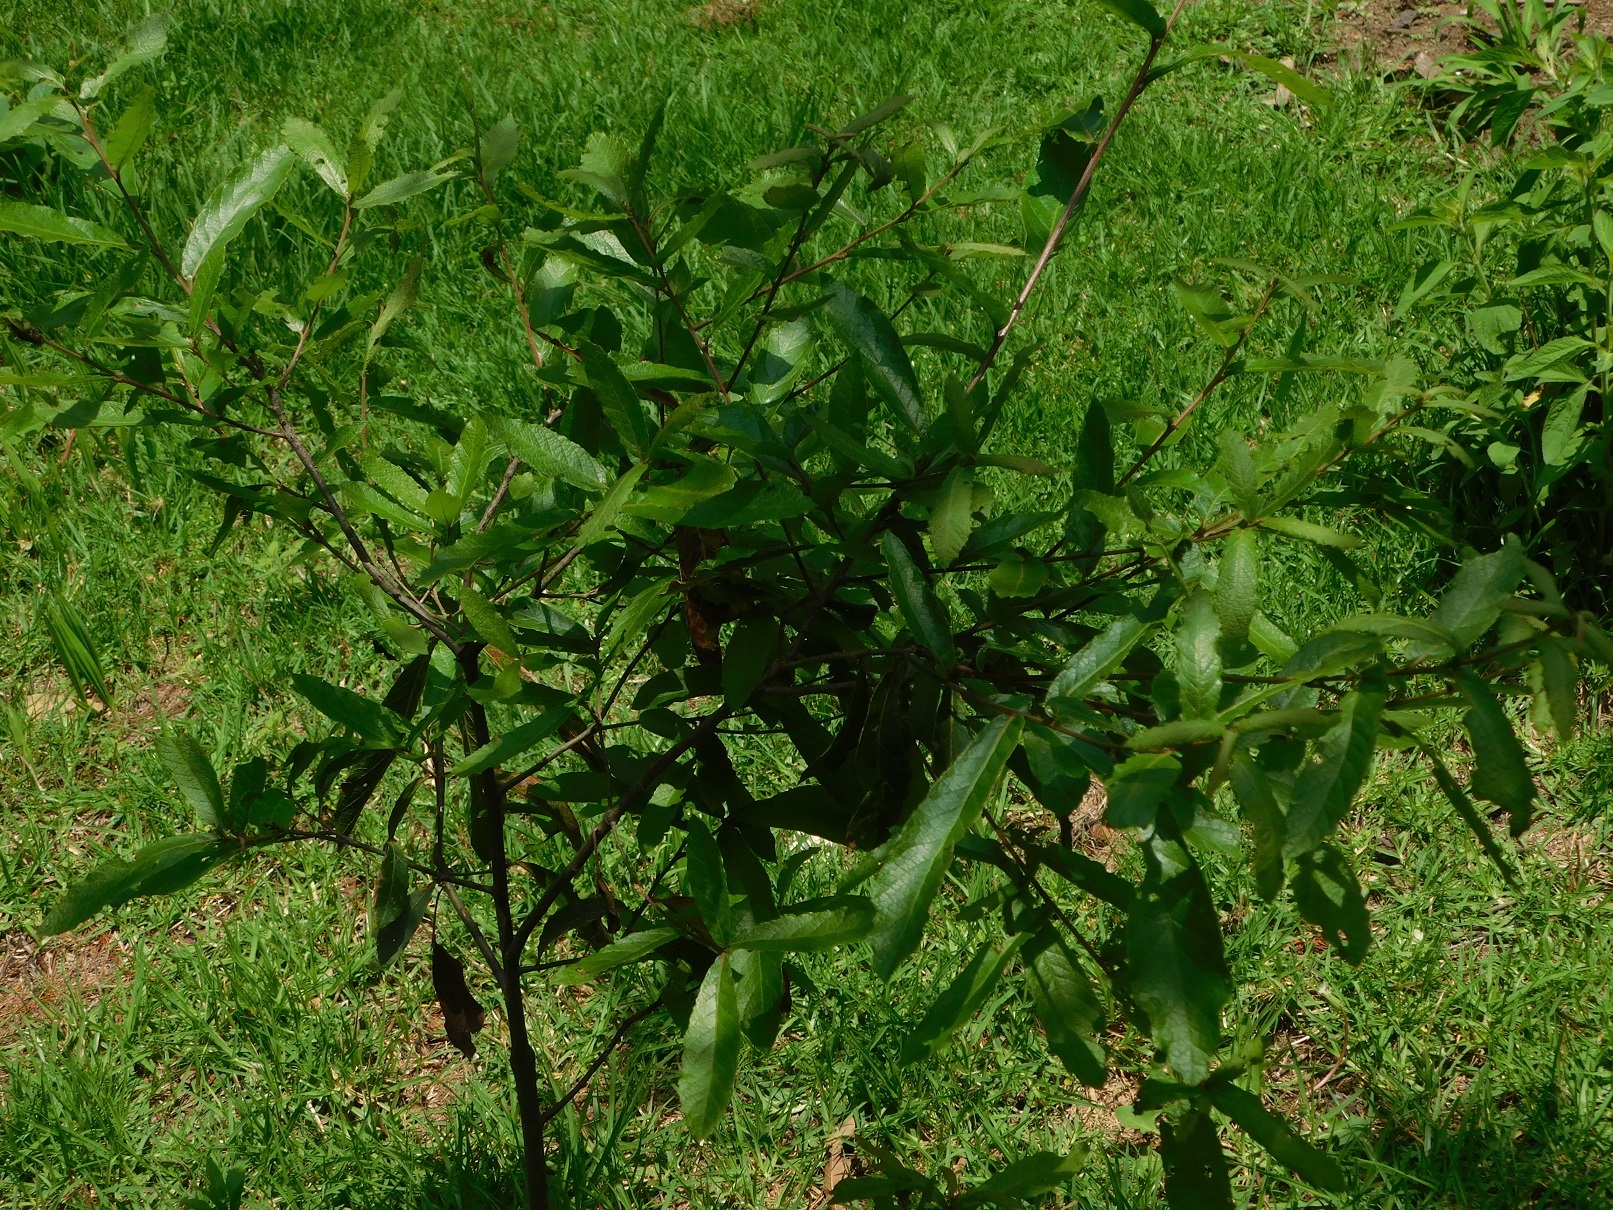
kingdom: Plantae
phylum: Tracheophyta
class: Magnoliopsida
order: Fagales
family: Fagaceae
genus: Quercus
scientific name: Quercus castanea
